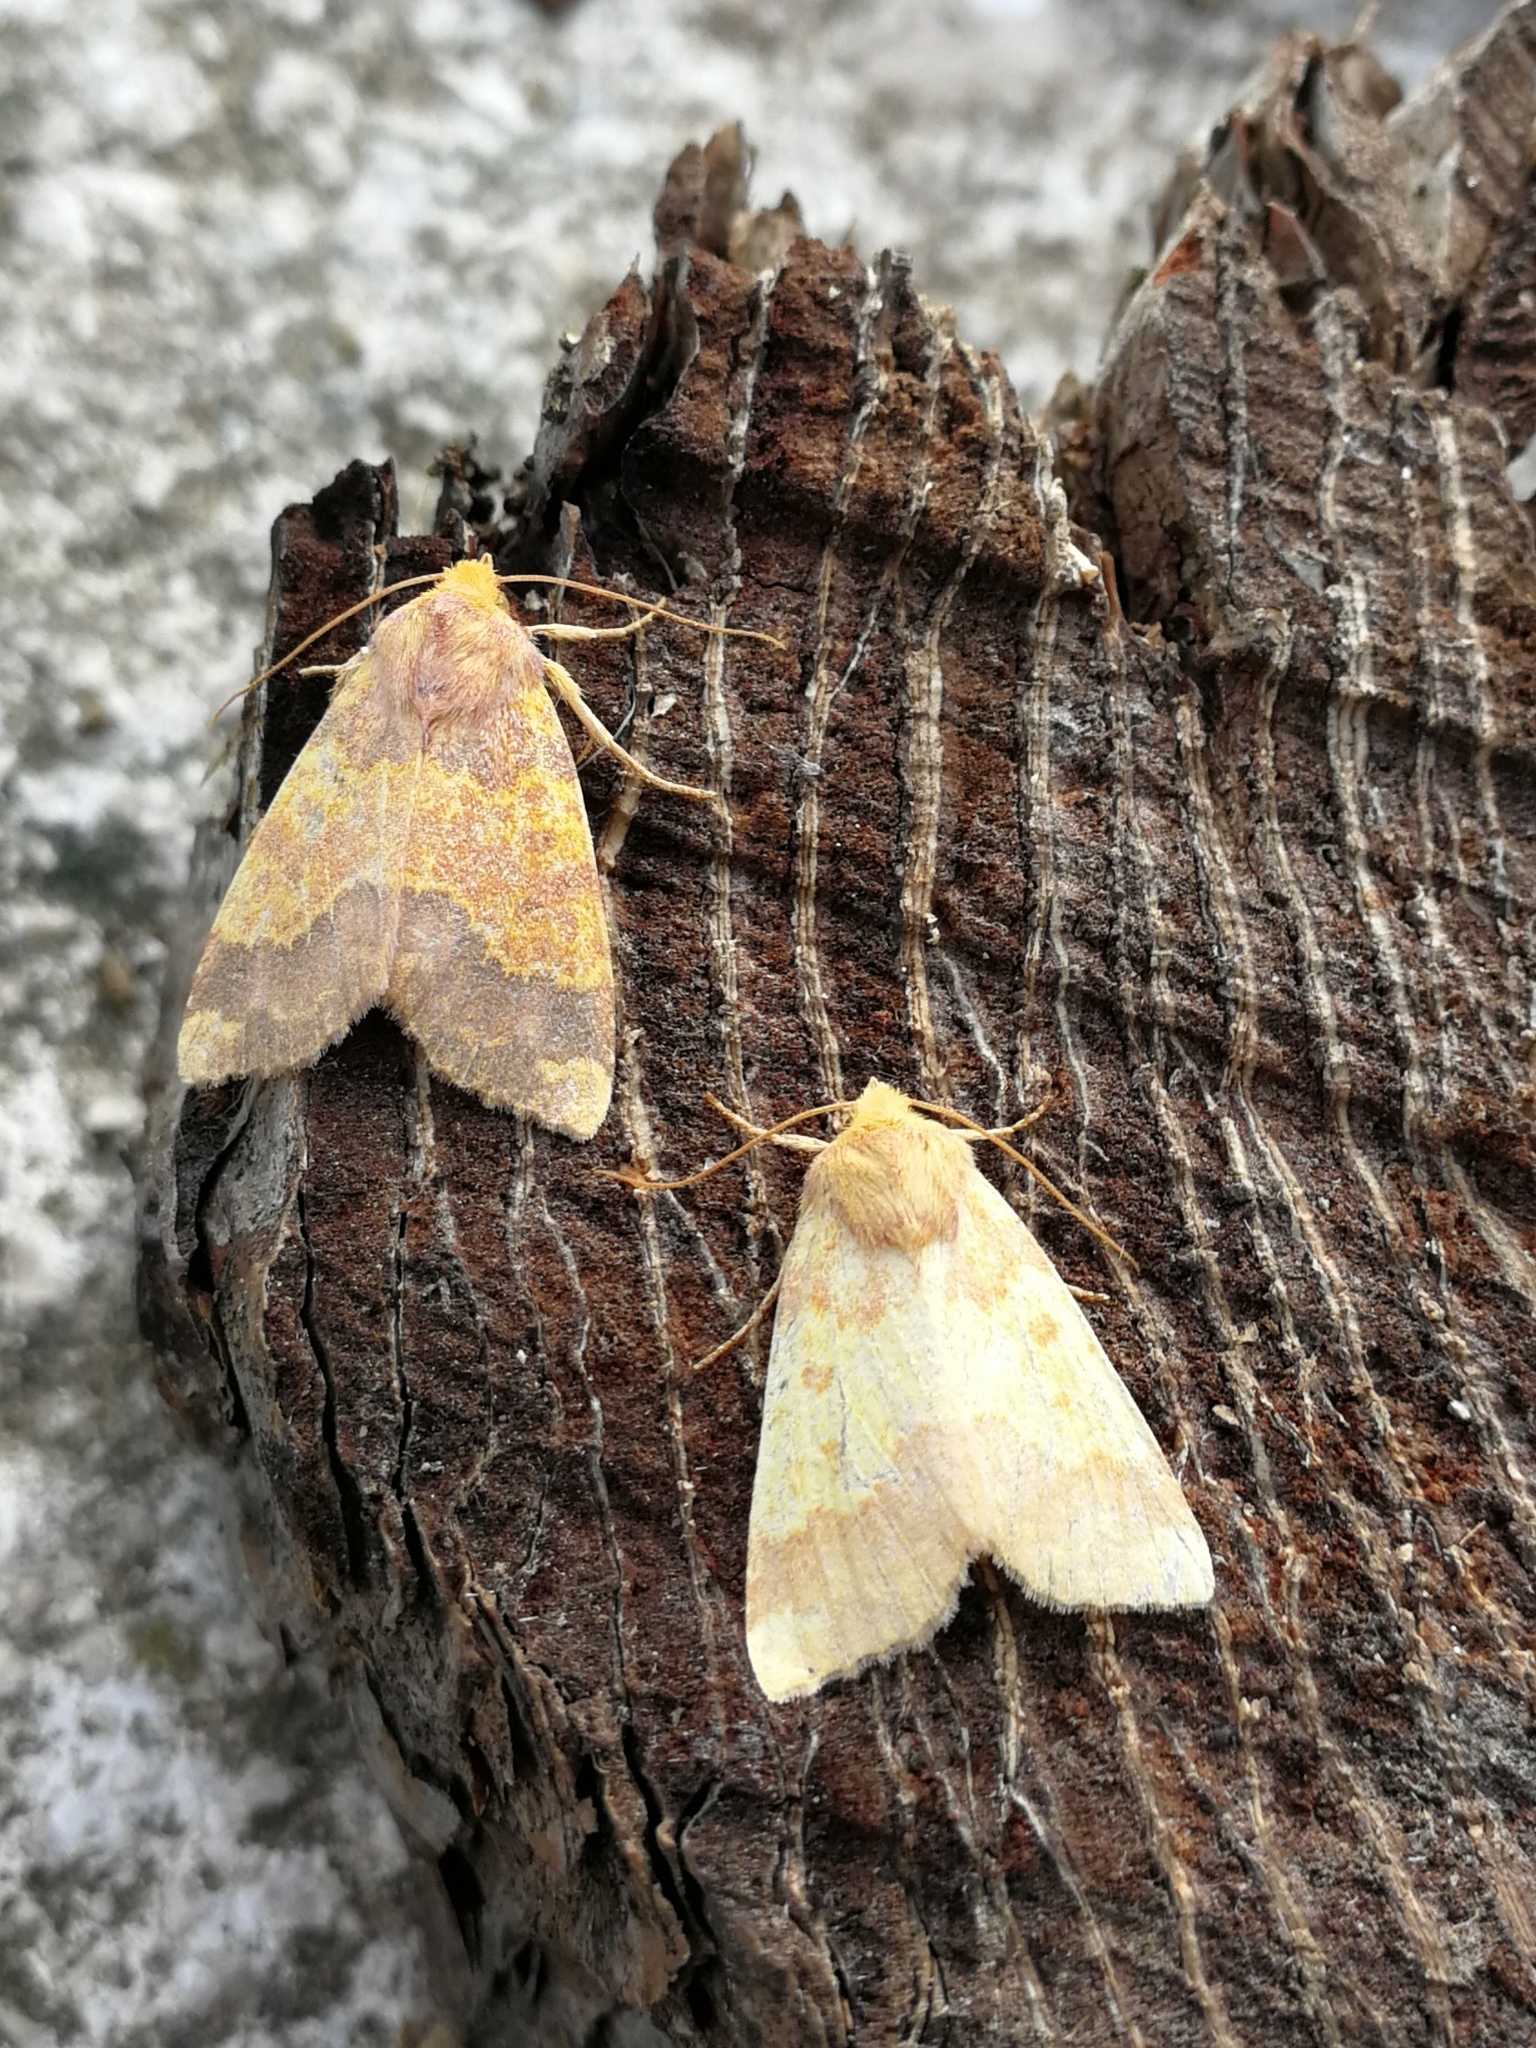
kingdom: Animalia
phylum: Arthropoda
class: Insecta
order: Lepidoptera
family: Noctuidae
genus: Tiliacea
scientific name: Tiliacea aurago
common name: Barred sallow
